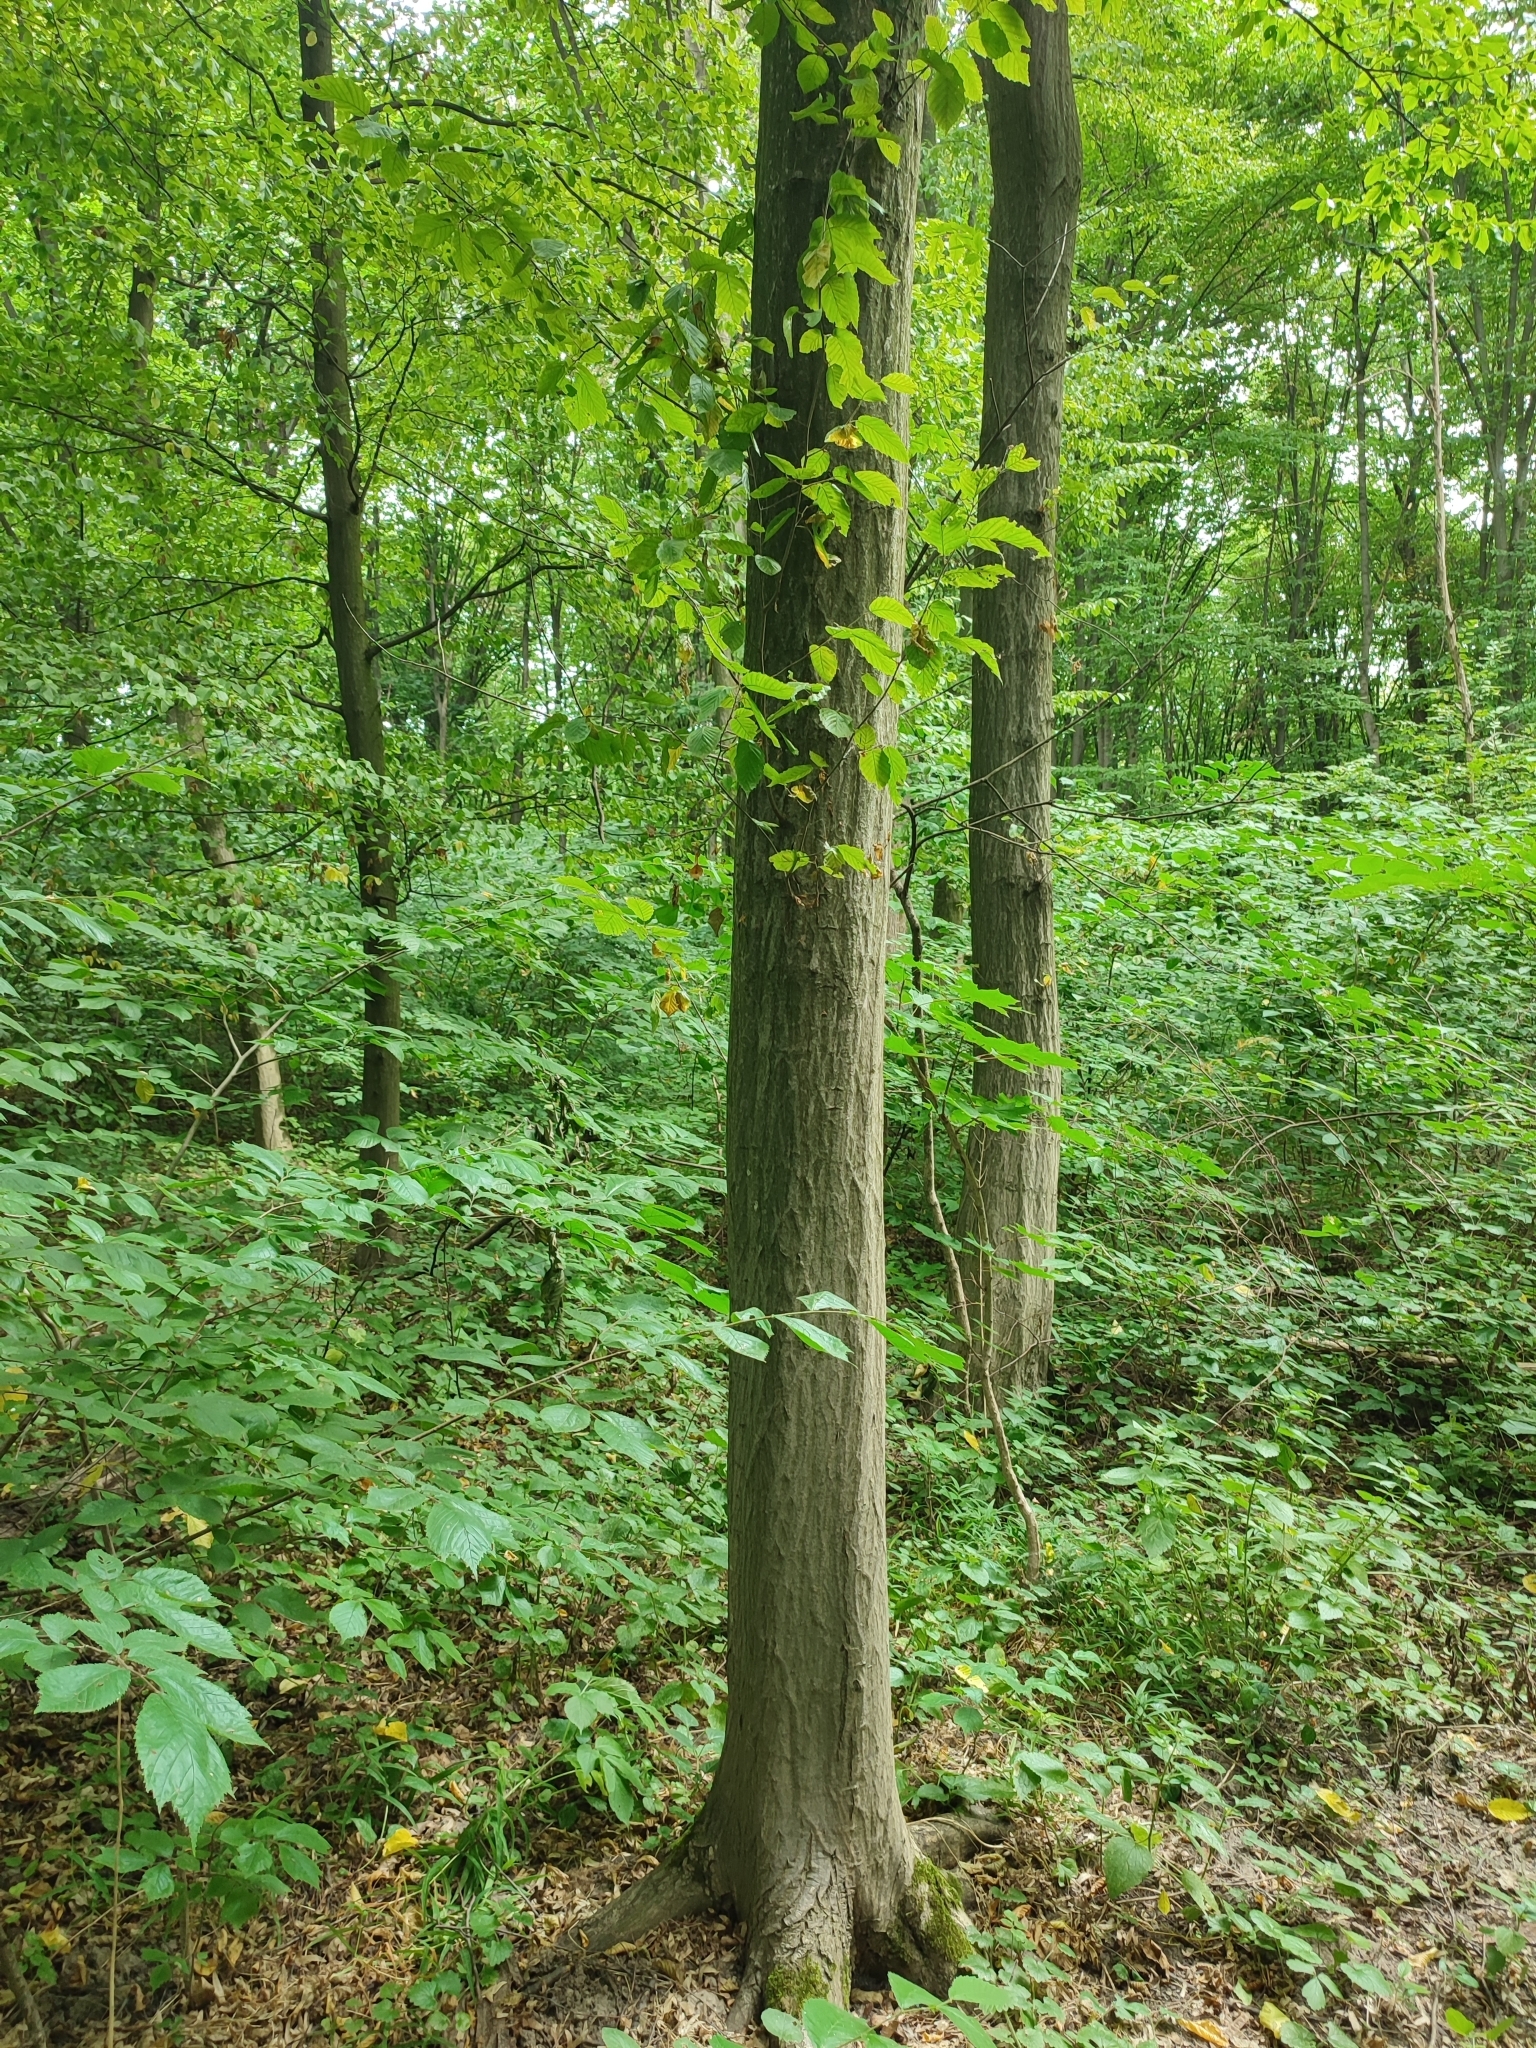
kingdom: Plantae
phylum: Tracheophyta
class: Magnoliopsida
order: Fagales
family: Betulaceae
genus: Carpinus
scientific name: Carpinus betulus
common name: Hornbeam
